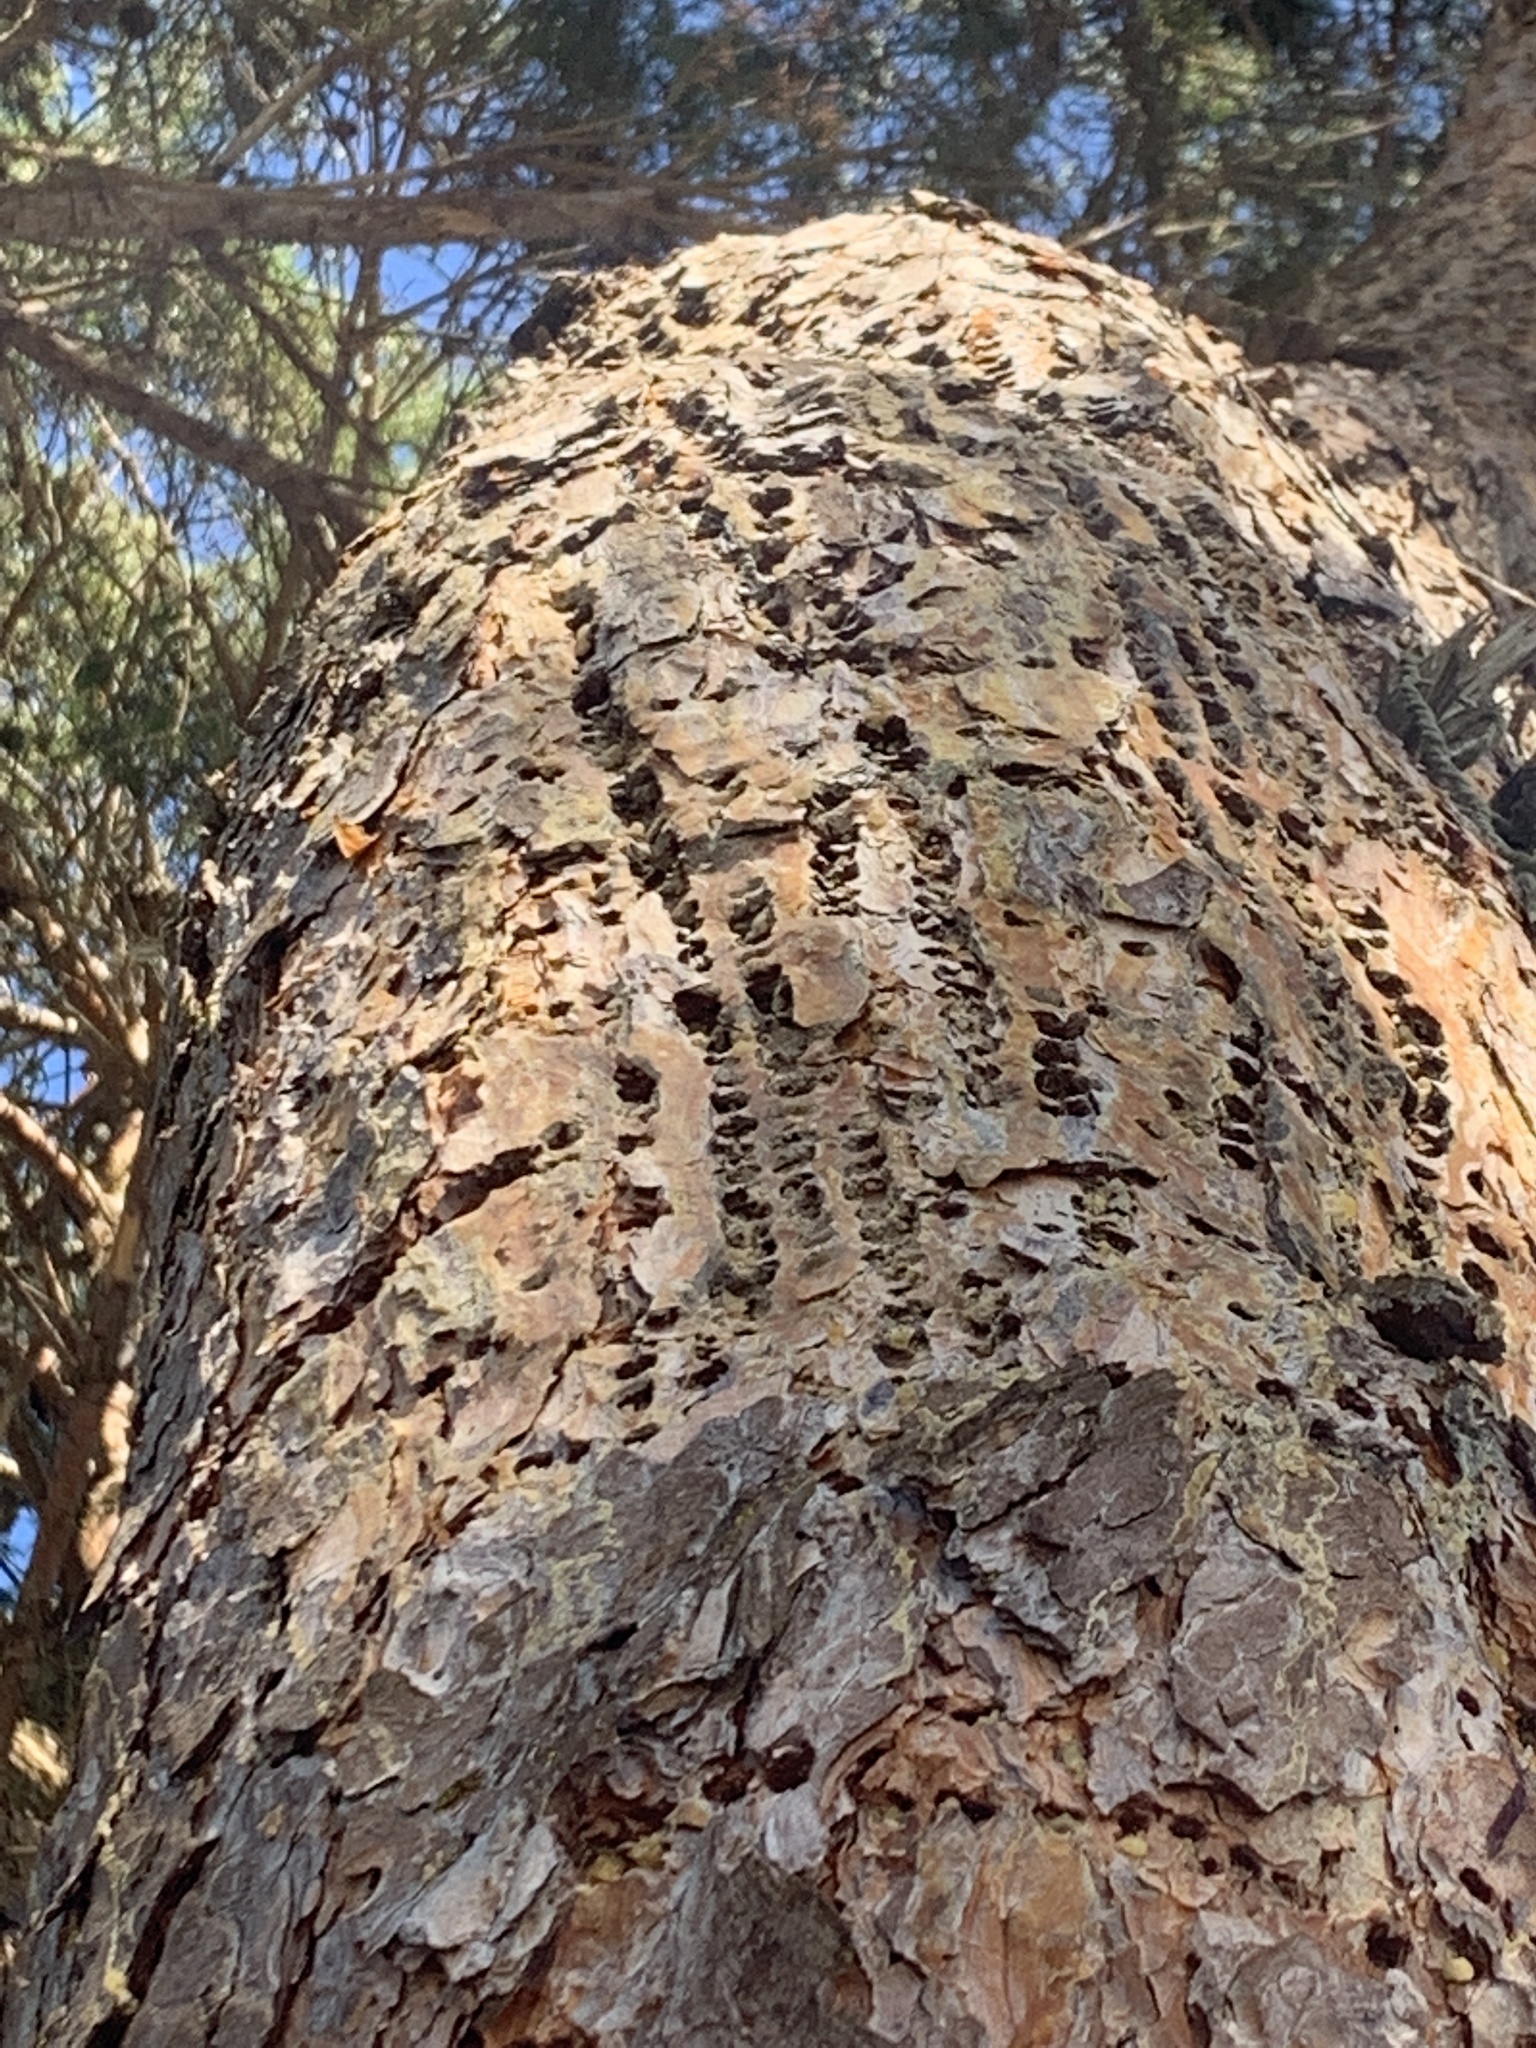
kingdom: Animalia
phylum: Chordata
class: Aves
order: Piciformes
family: Picidae
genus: Sphyrapicus
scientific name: Sphyrapicus ruber
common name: Red-breasted sapsucker
